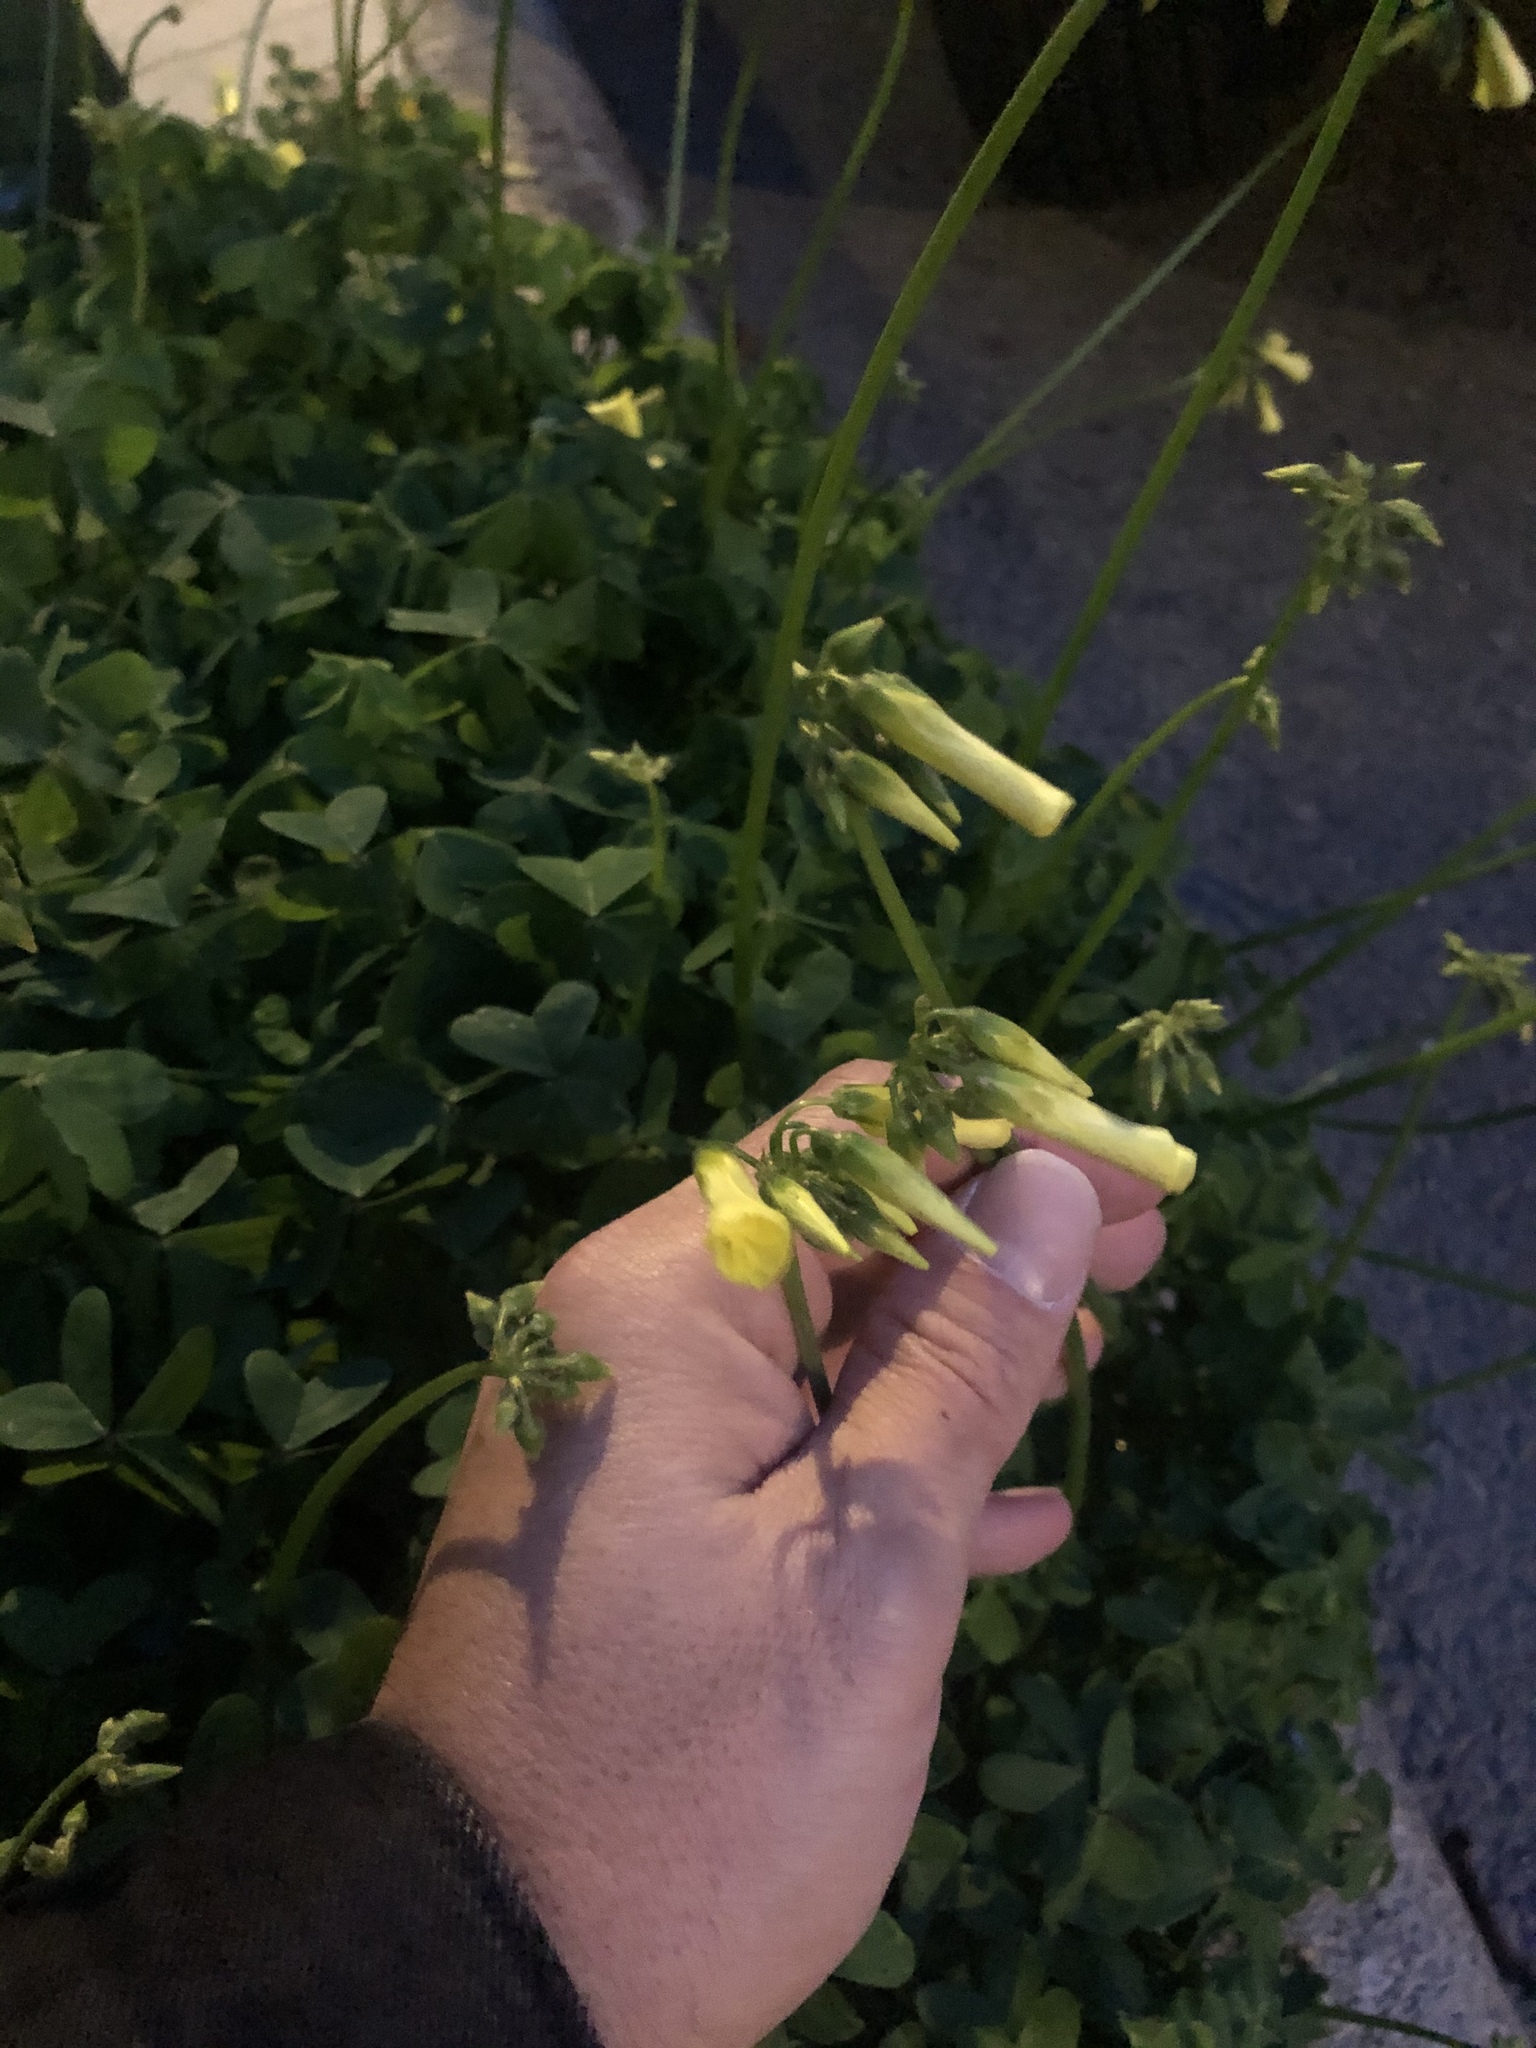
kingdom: Plantae
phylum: Tracheophyta
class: Magnoliopsida
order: Oxalidales
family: Oxalidaceae
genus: Oxalis
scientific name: Oxalis pes-caprae
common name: Bermuda-buttercup
